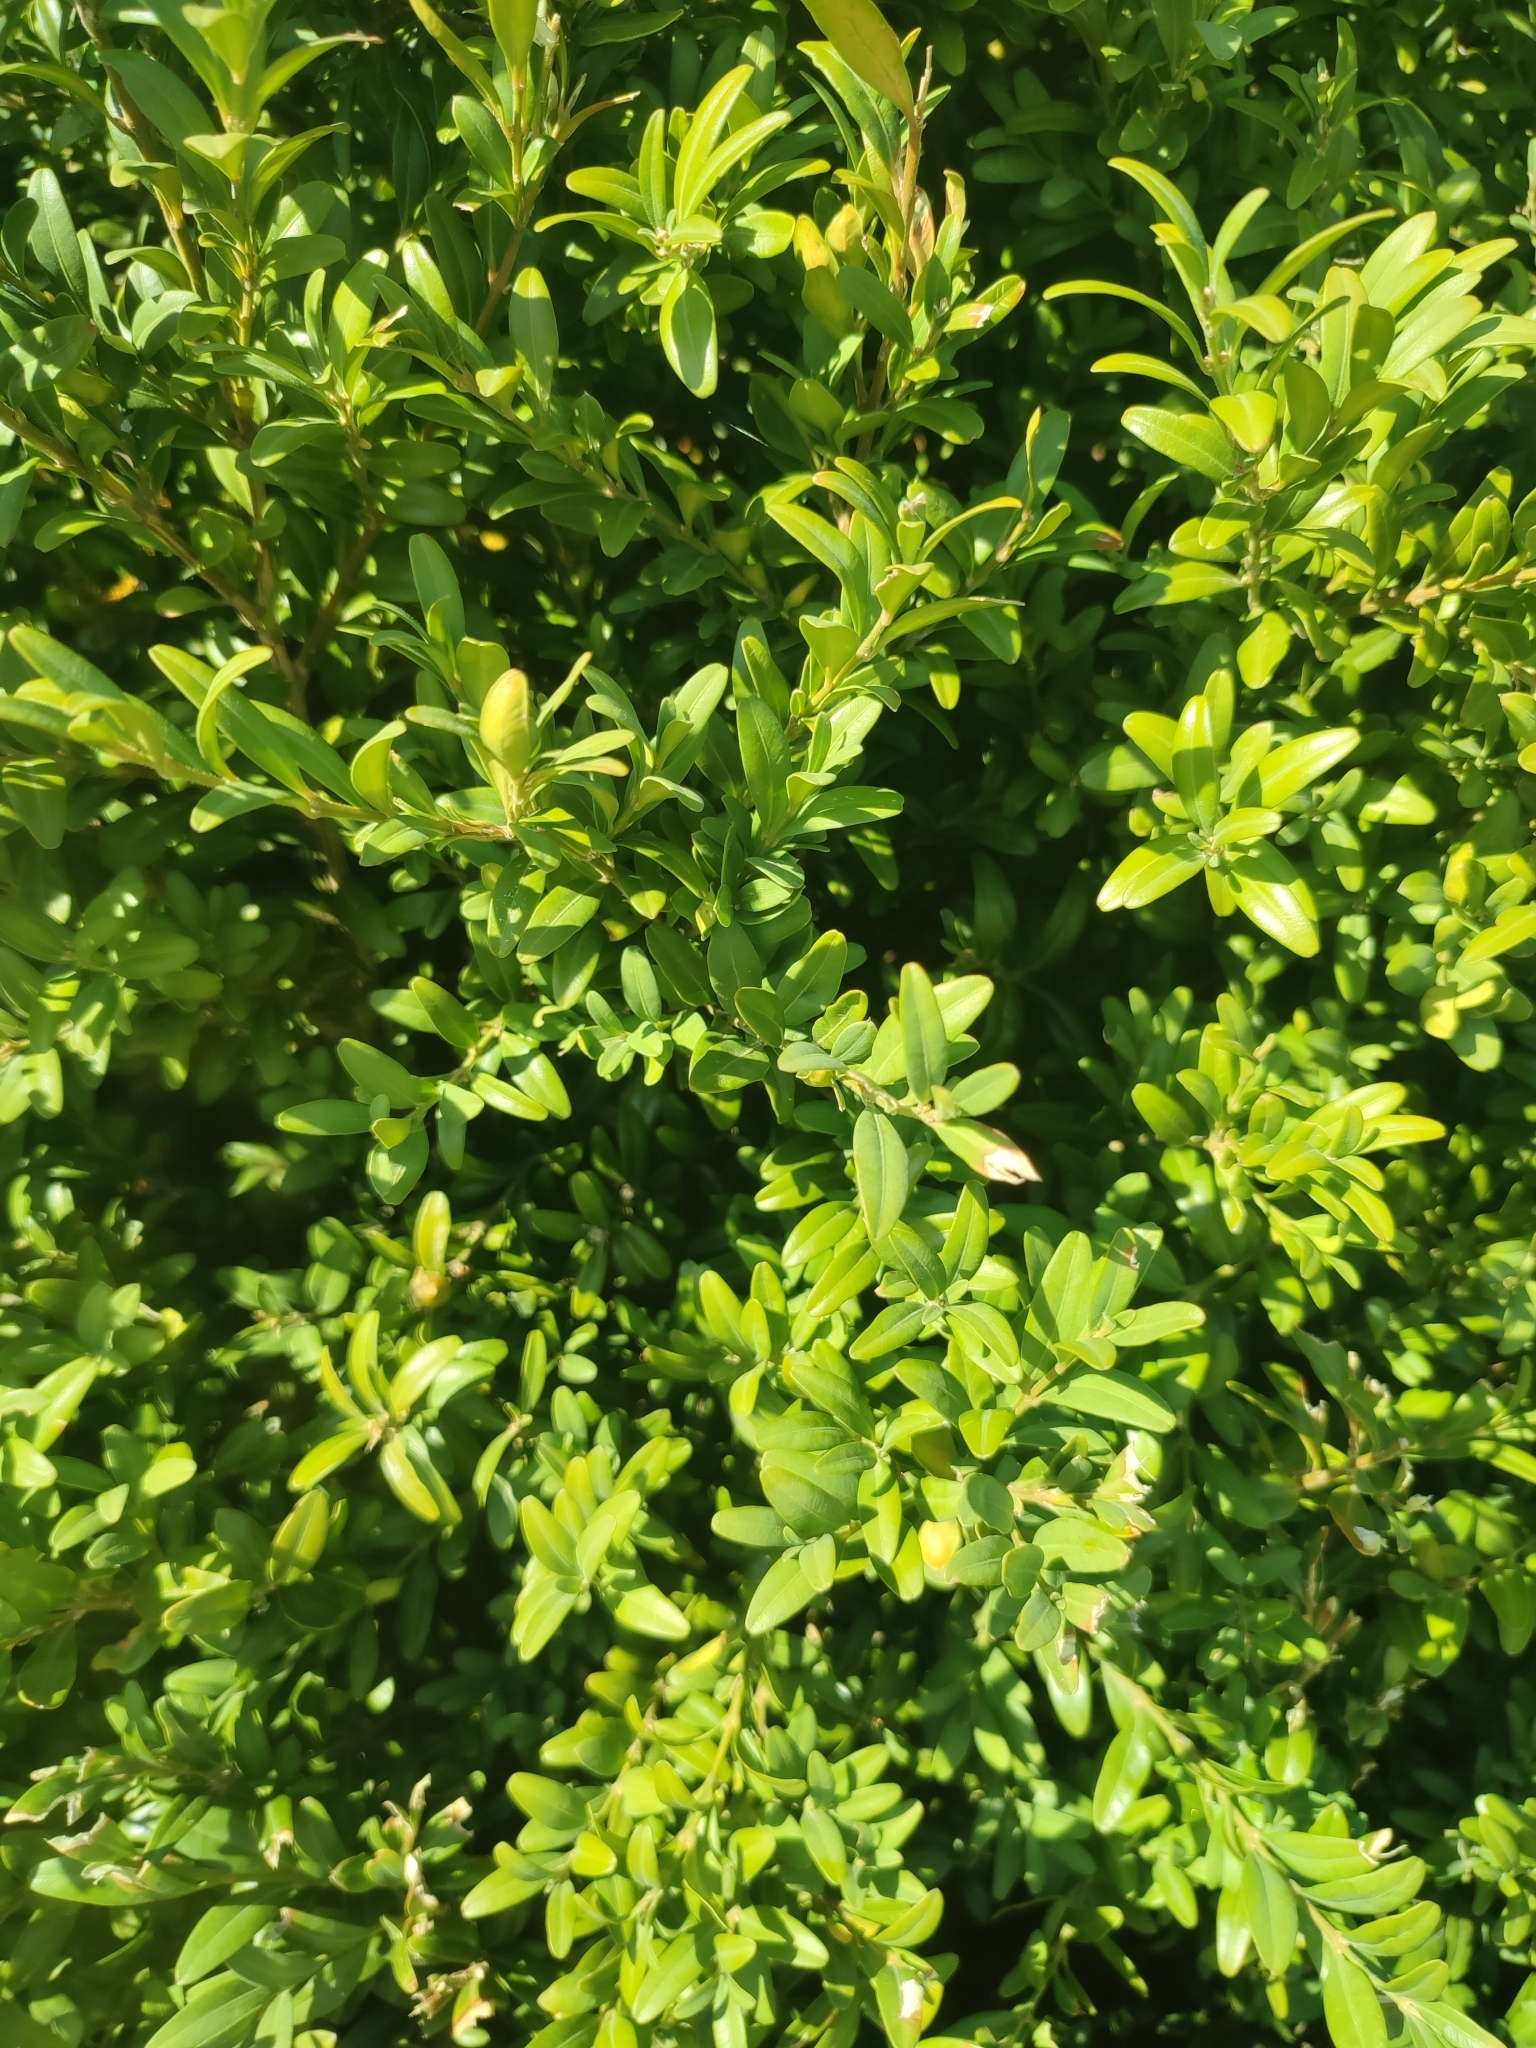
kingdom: Plantae
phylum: Tracheophyta
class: Magnoliopsida
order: Buxales
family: Buxaceae
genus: Buxus
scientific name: Buxus sempervirens
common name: Box
